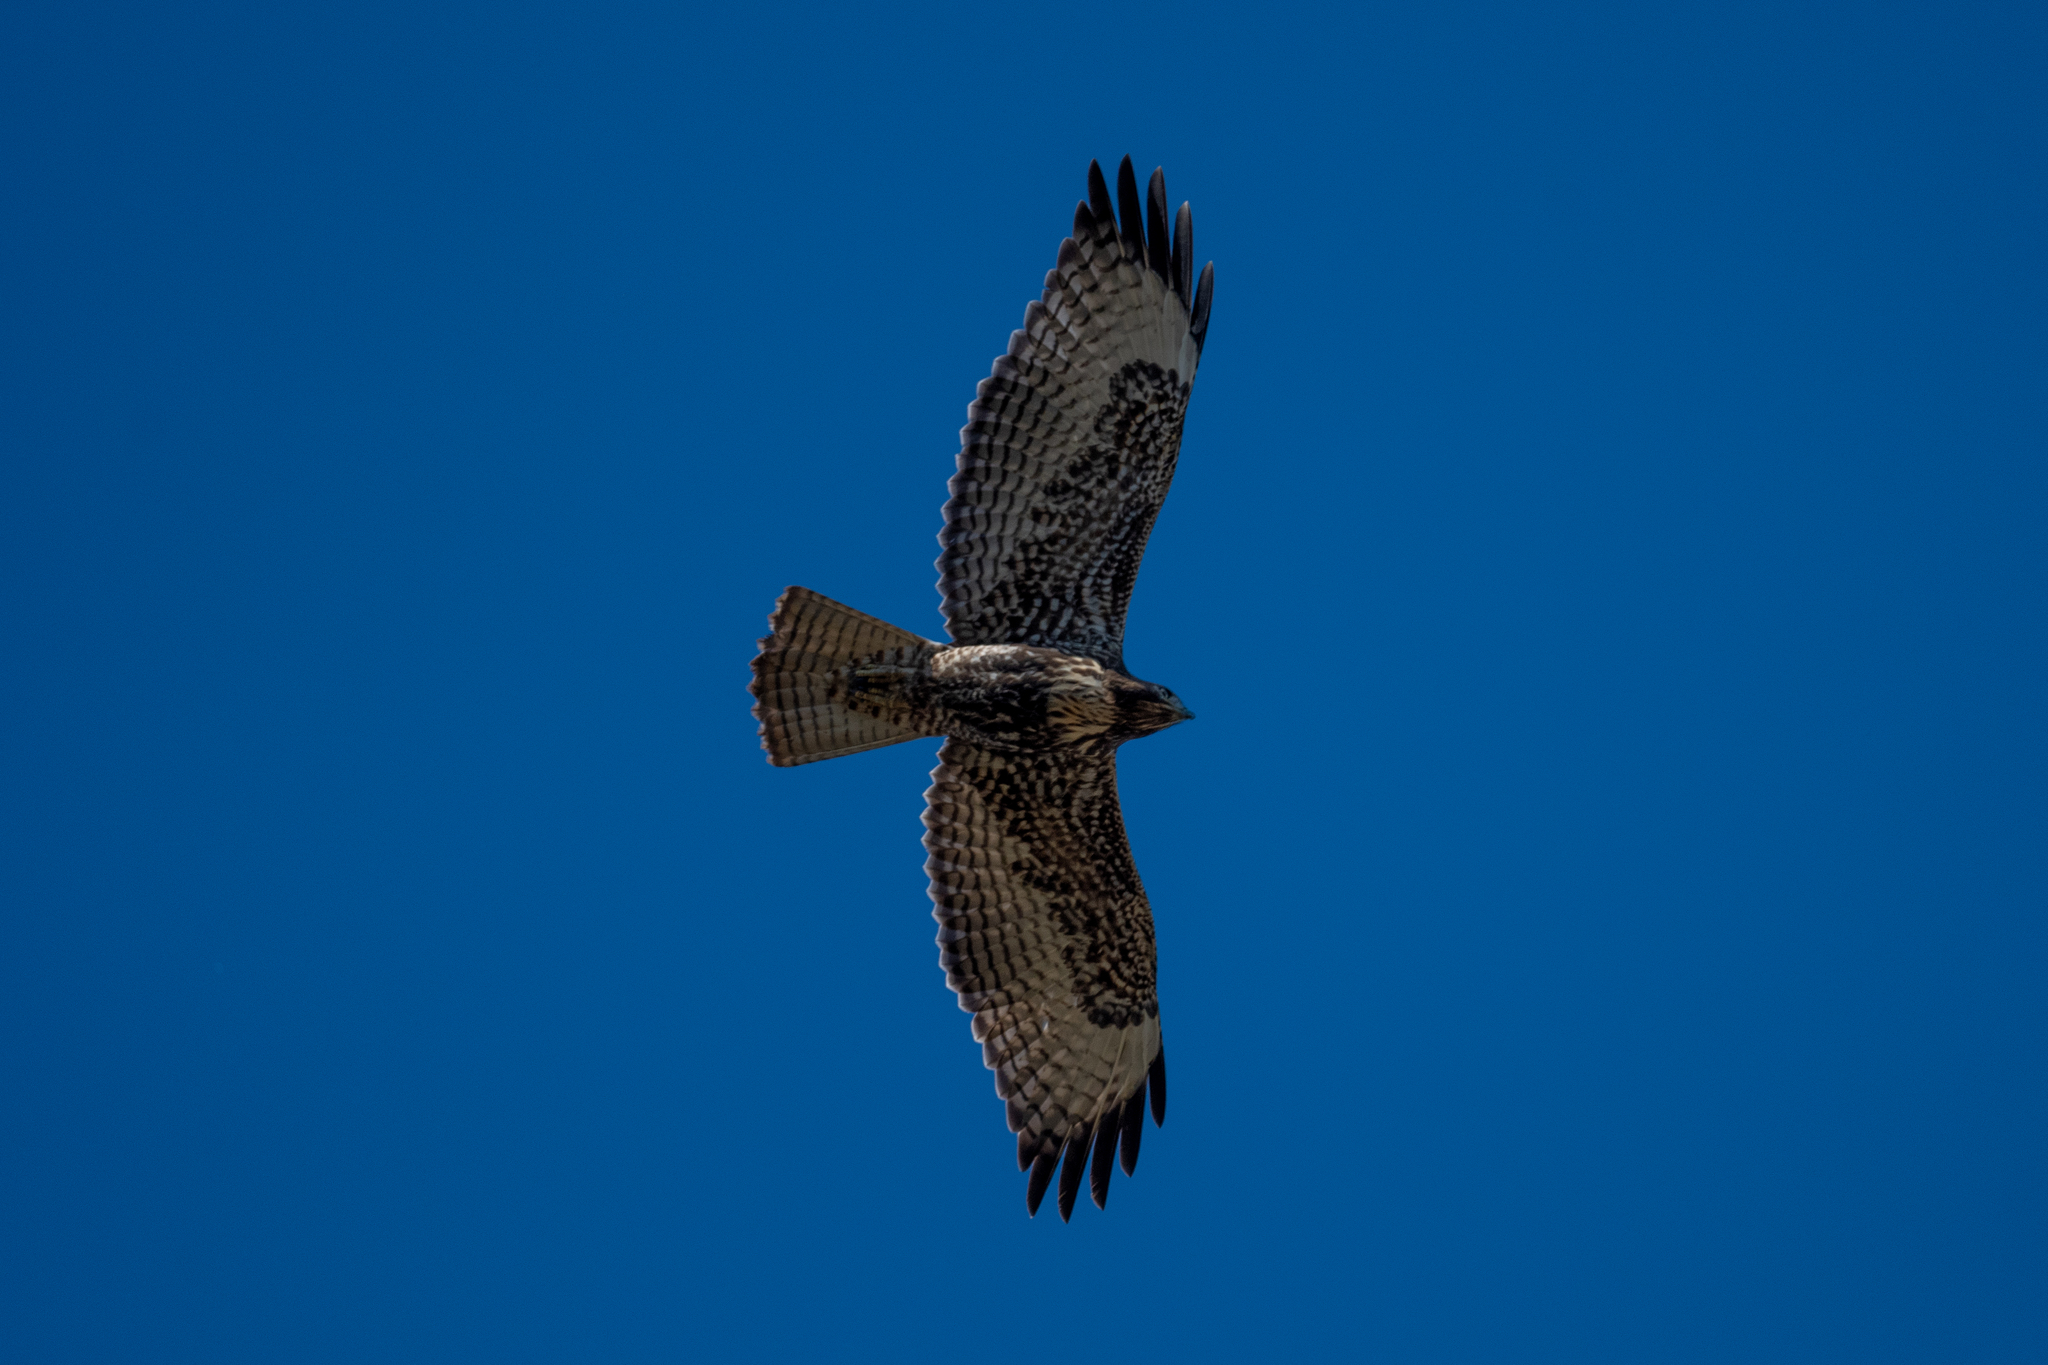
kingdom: Animalia
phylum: Chordata
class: Aves
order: Accipitriformes
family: Accipitridae
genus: Buteo
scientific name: Buteo jamaicensis
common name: Red-tailed hawk
